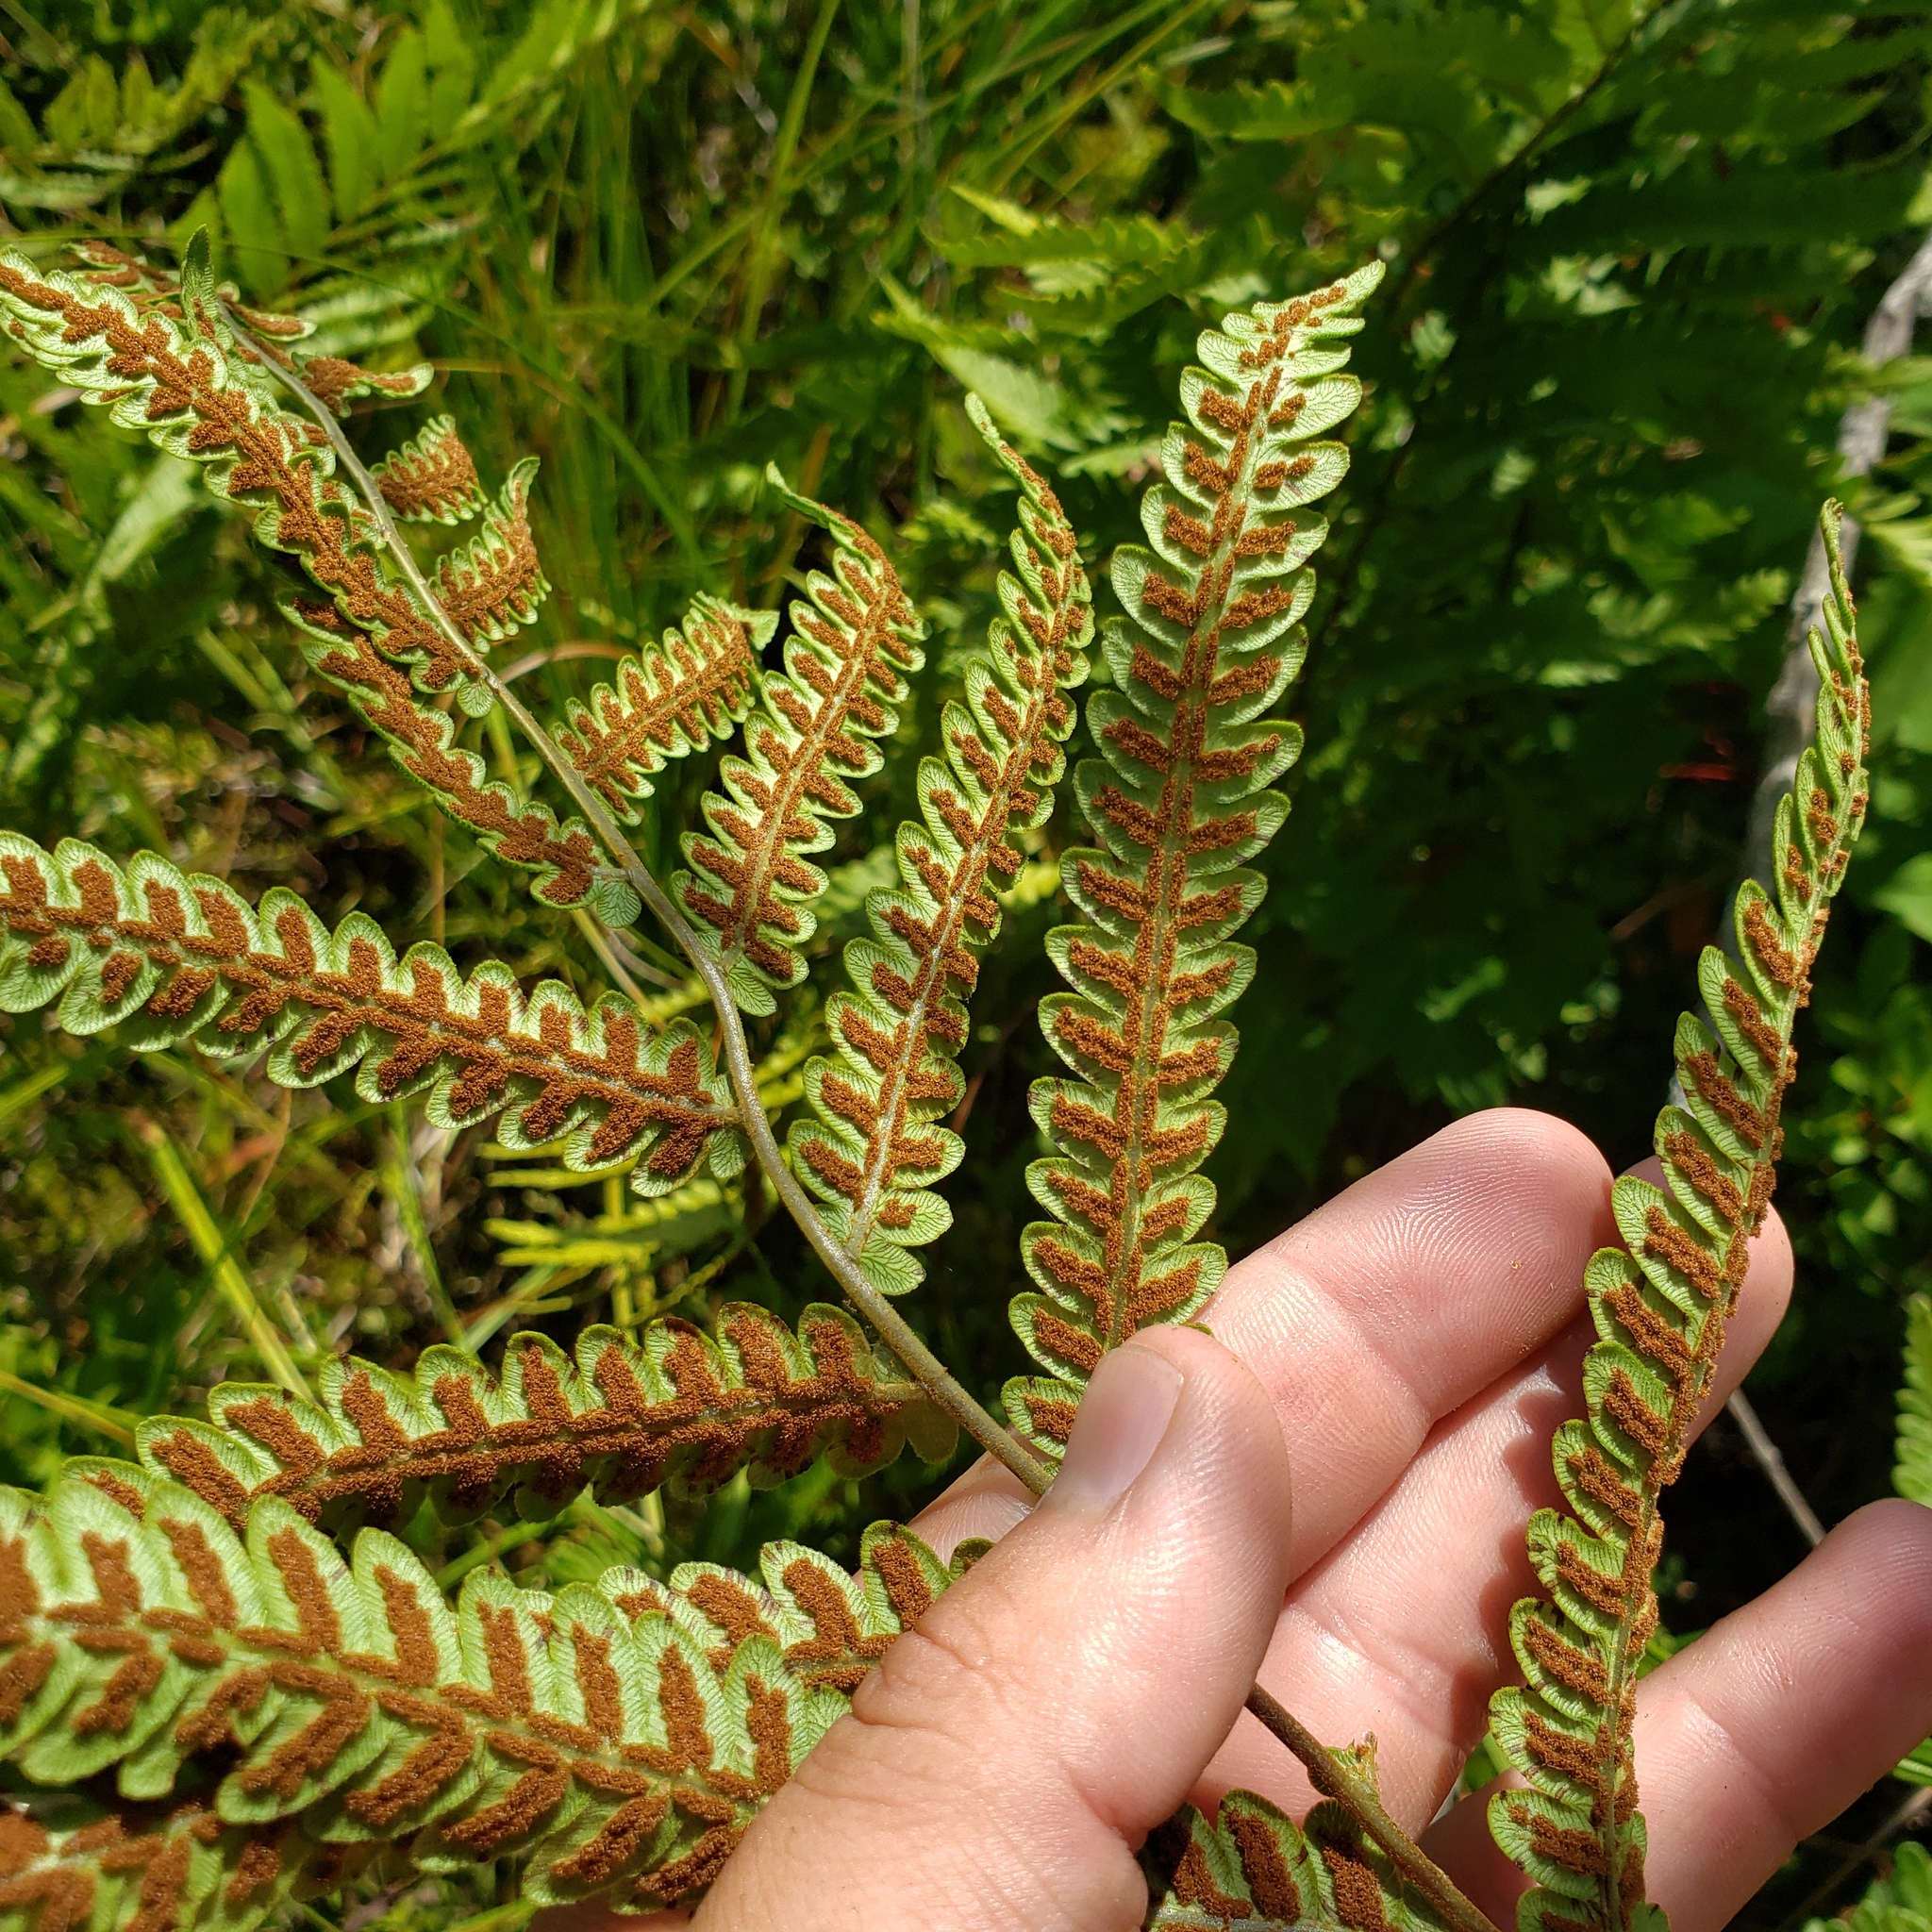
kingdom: Plantae
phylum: Tracheophyta
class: Polypodiopsida
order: Polypodiales
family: Blechnaceae
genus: Anchistea
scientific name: Anchistea virginica
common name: Virginia chain fern
